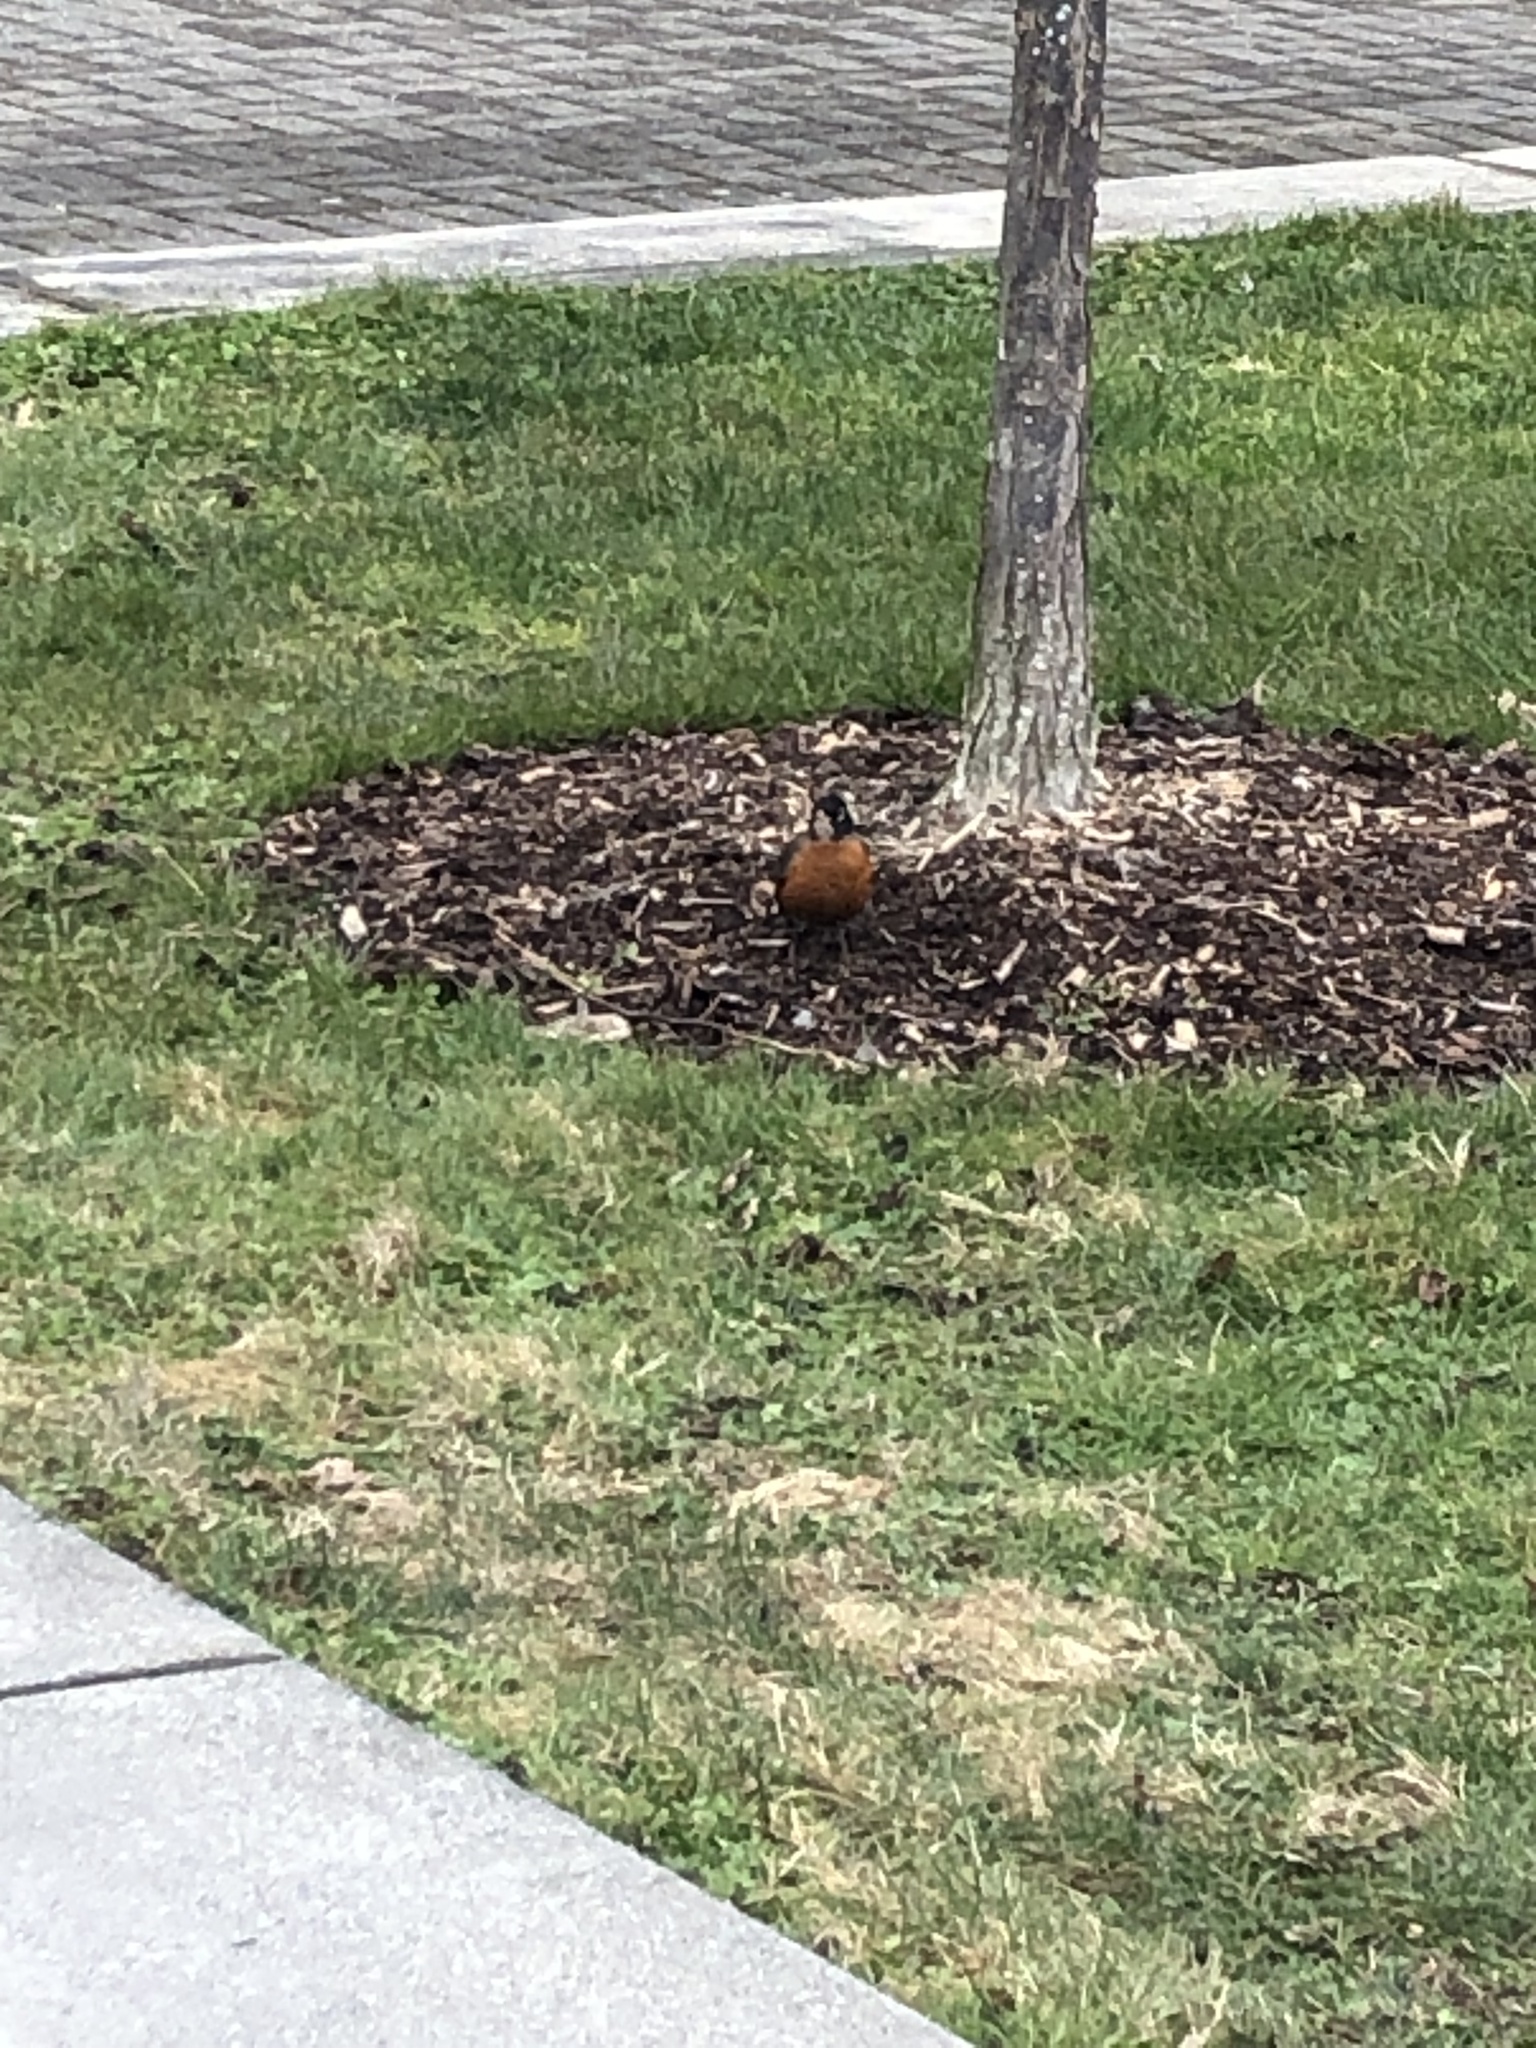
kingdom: Animalia
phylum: Chordata
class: Aves
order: Passeriformes
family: Turdidae
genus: Turdus
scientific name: Turdus migratorius
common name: American robin
